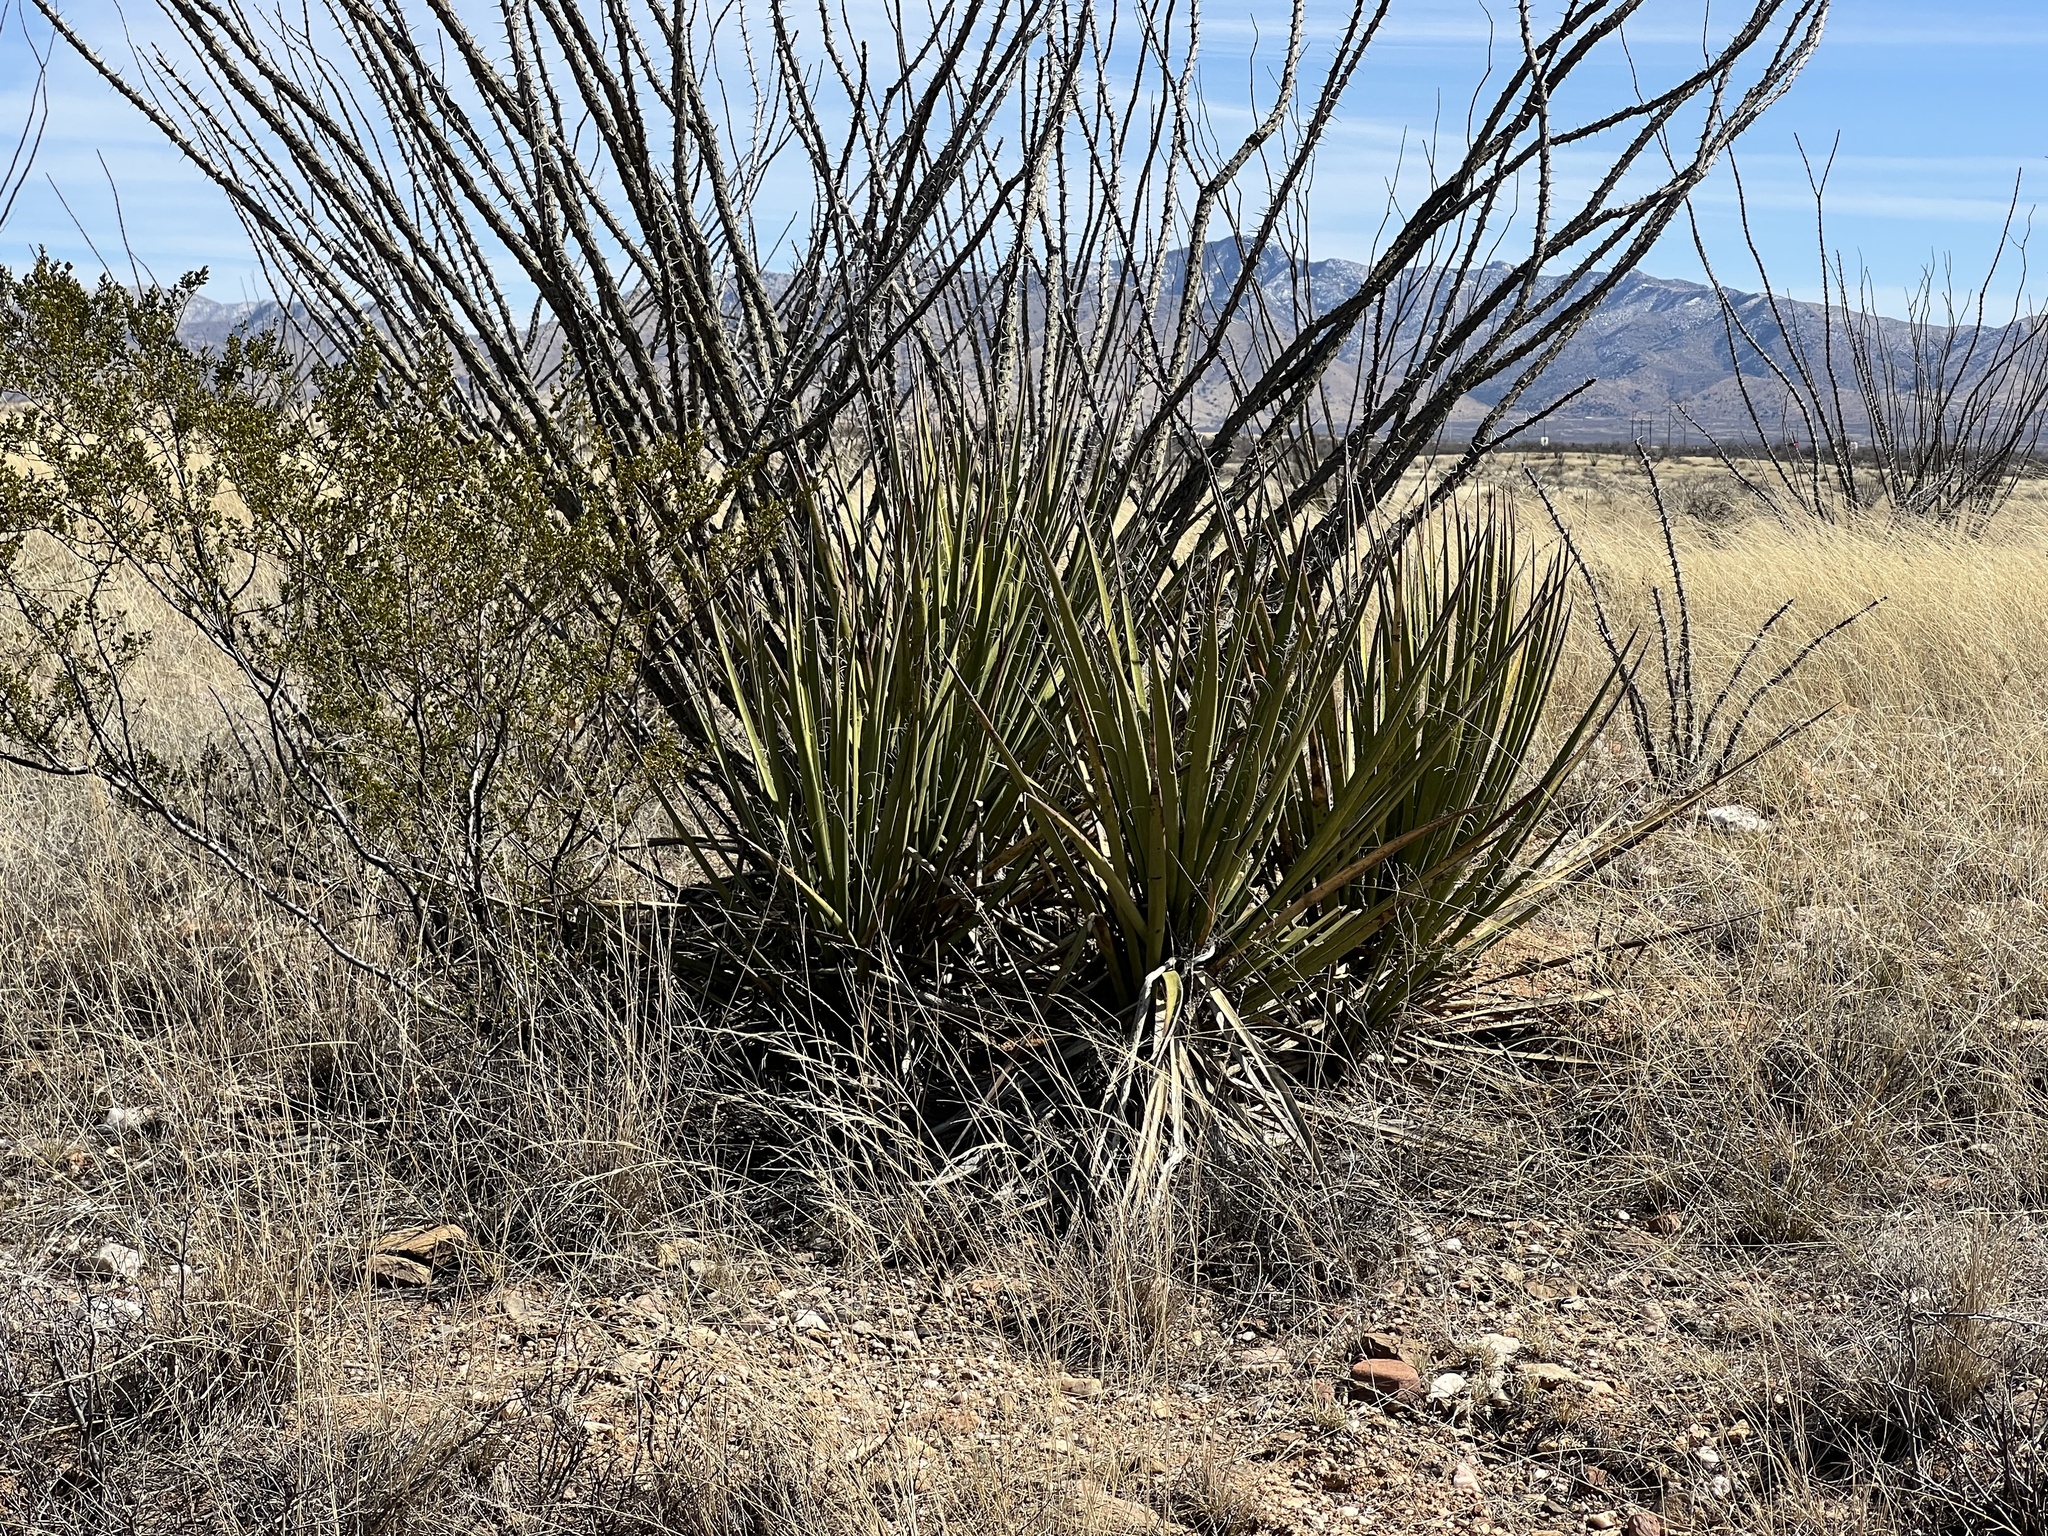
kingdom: Plantae
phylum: Tracheophyta
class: Liliopsida
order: Asparagales
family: Asparagaceae
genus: Yucca
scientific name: Yucca baccata
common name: Banana yucca
